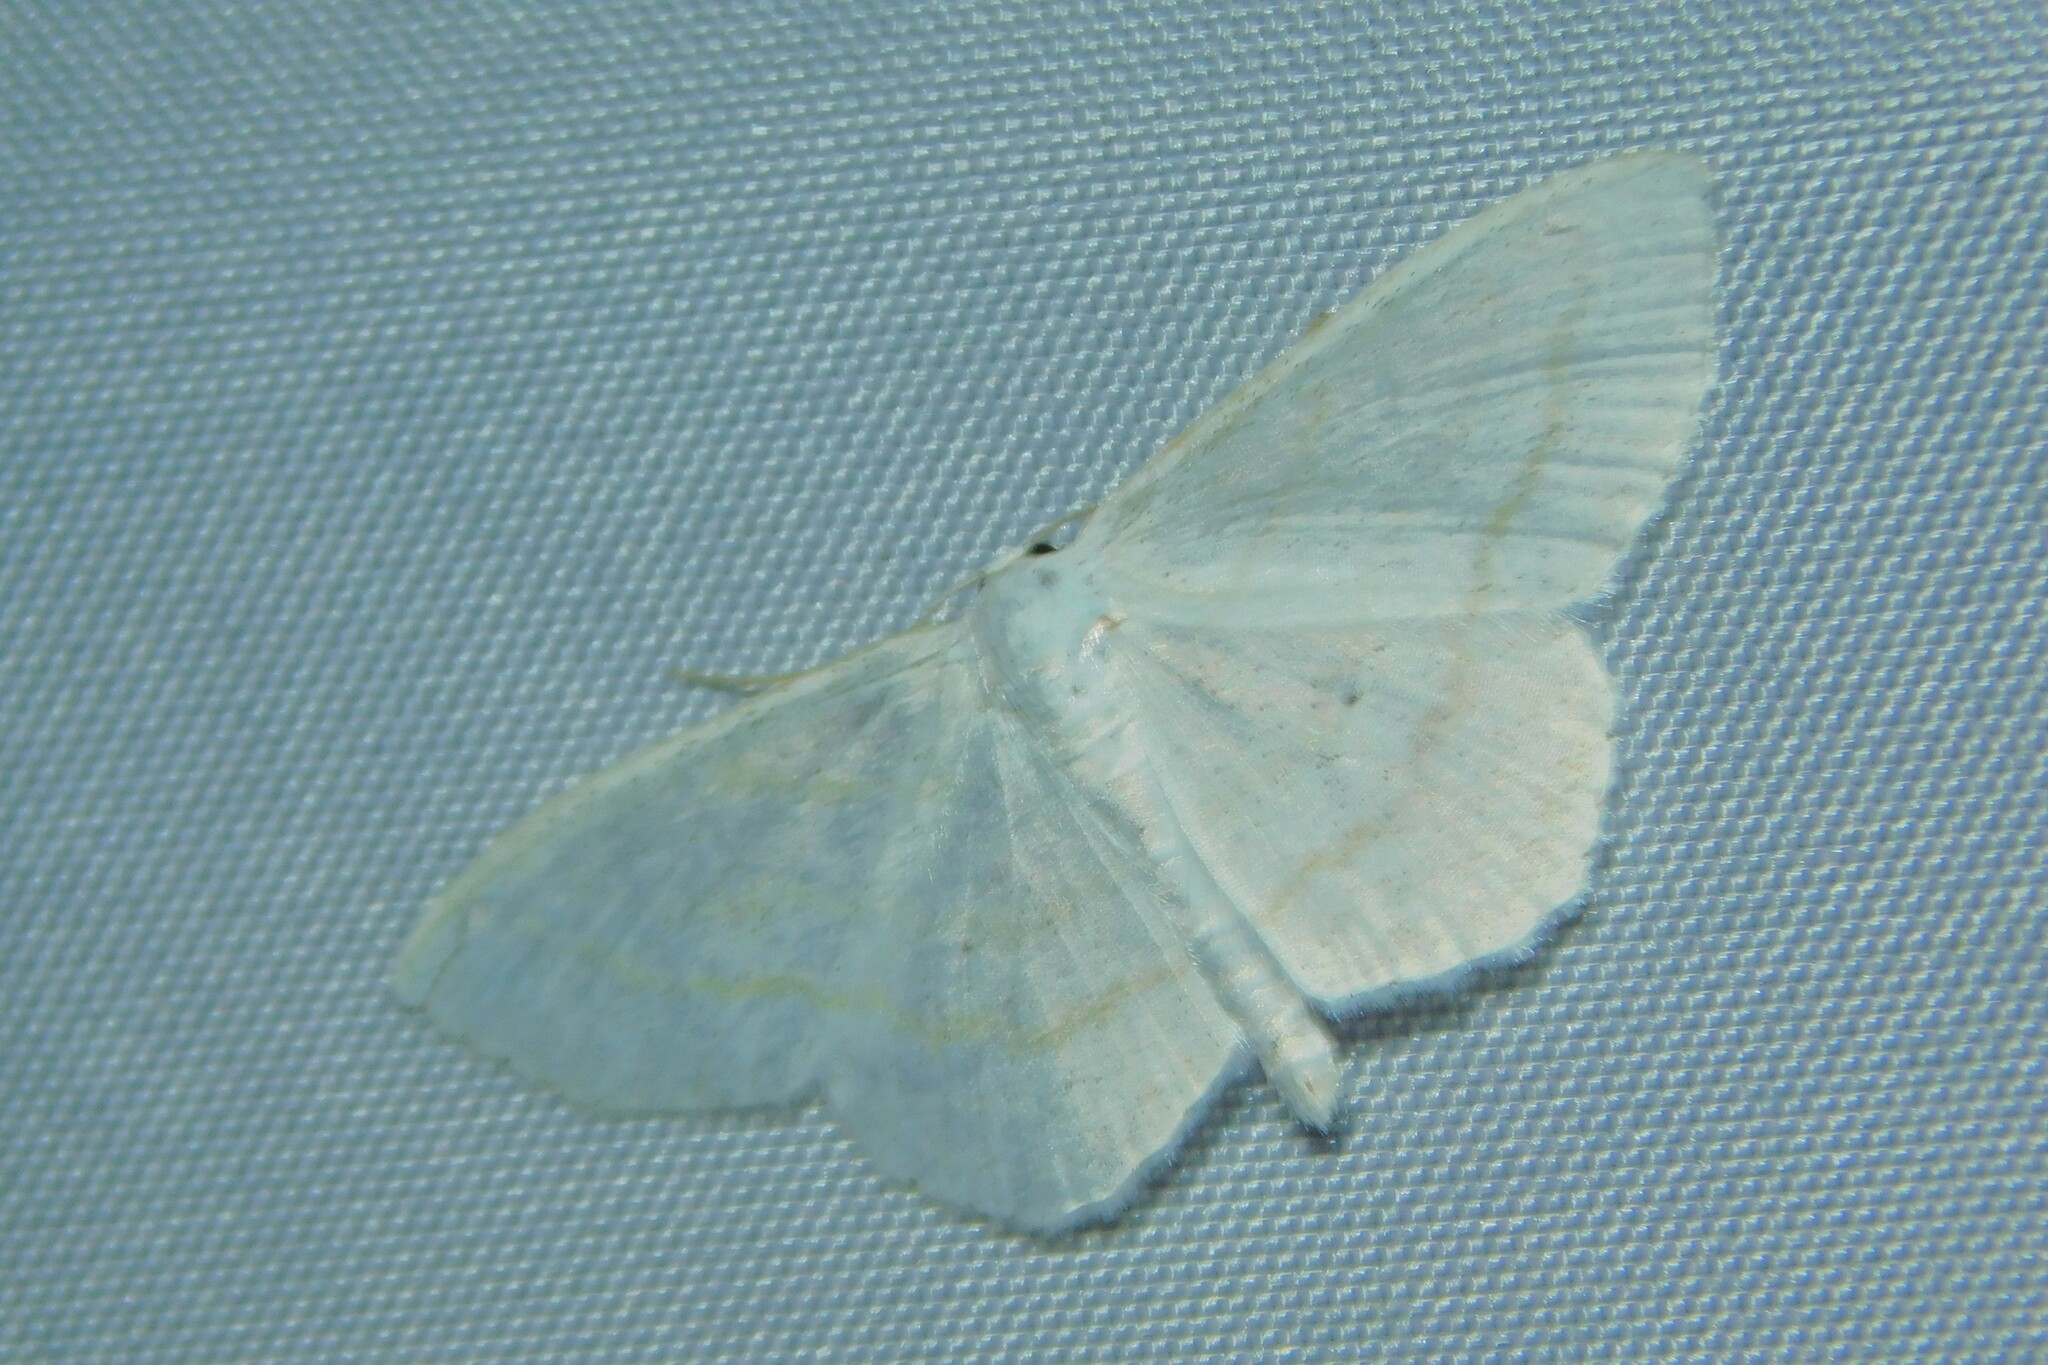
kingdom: Animalia
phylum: Arthropoda
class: Insecta
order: Lepidoptera
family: Geometridae
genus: Scopula
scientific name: Scopula subpunctaria
